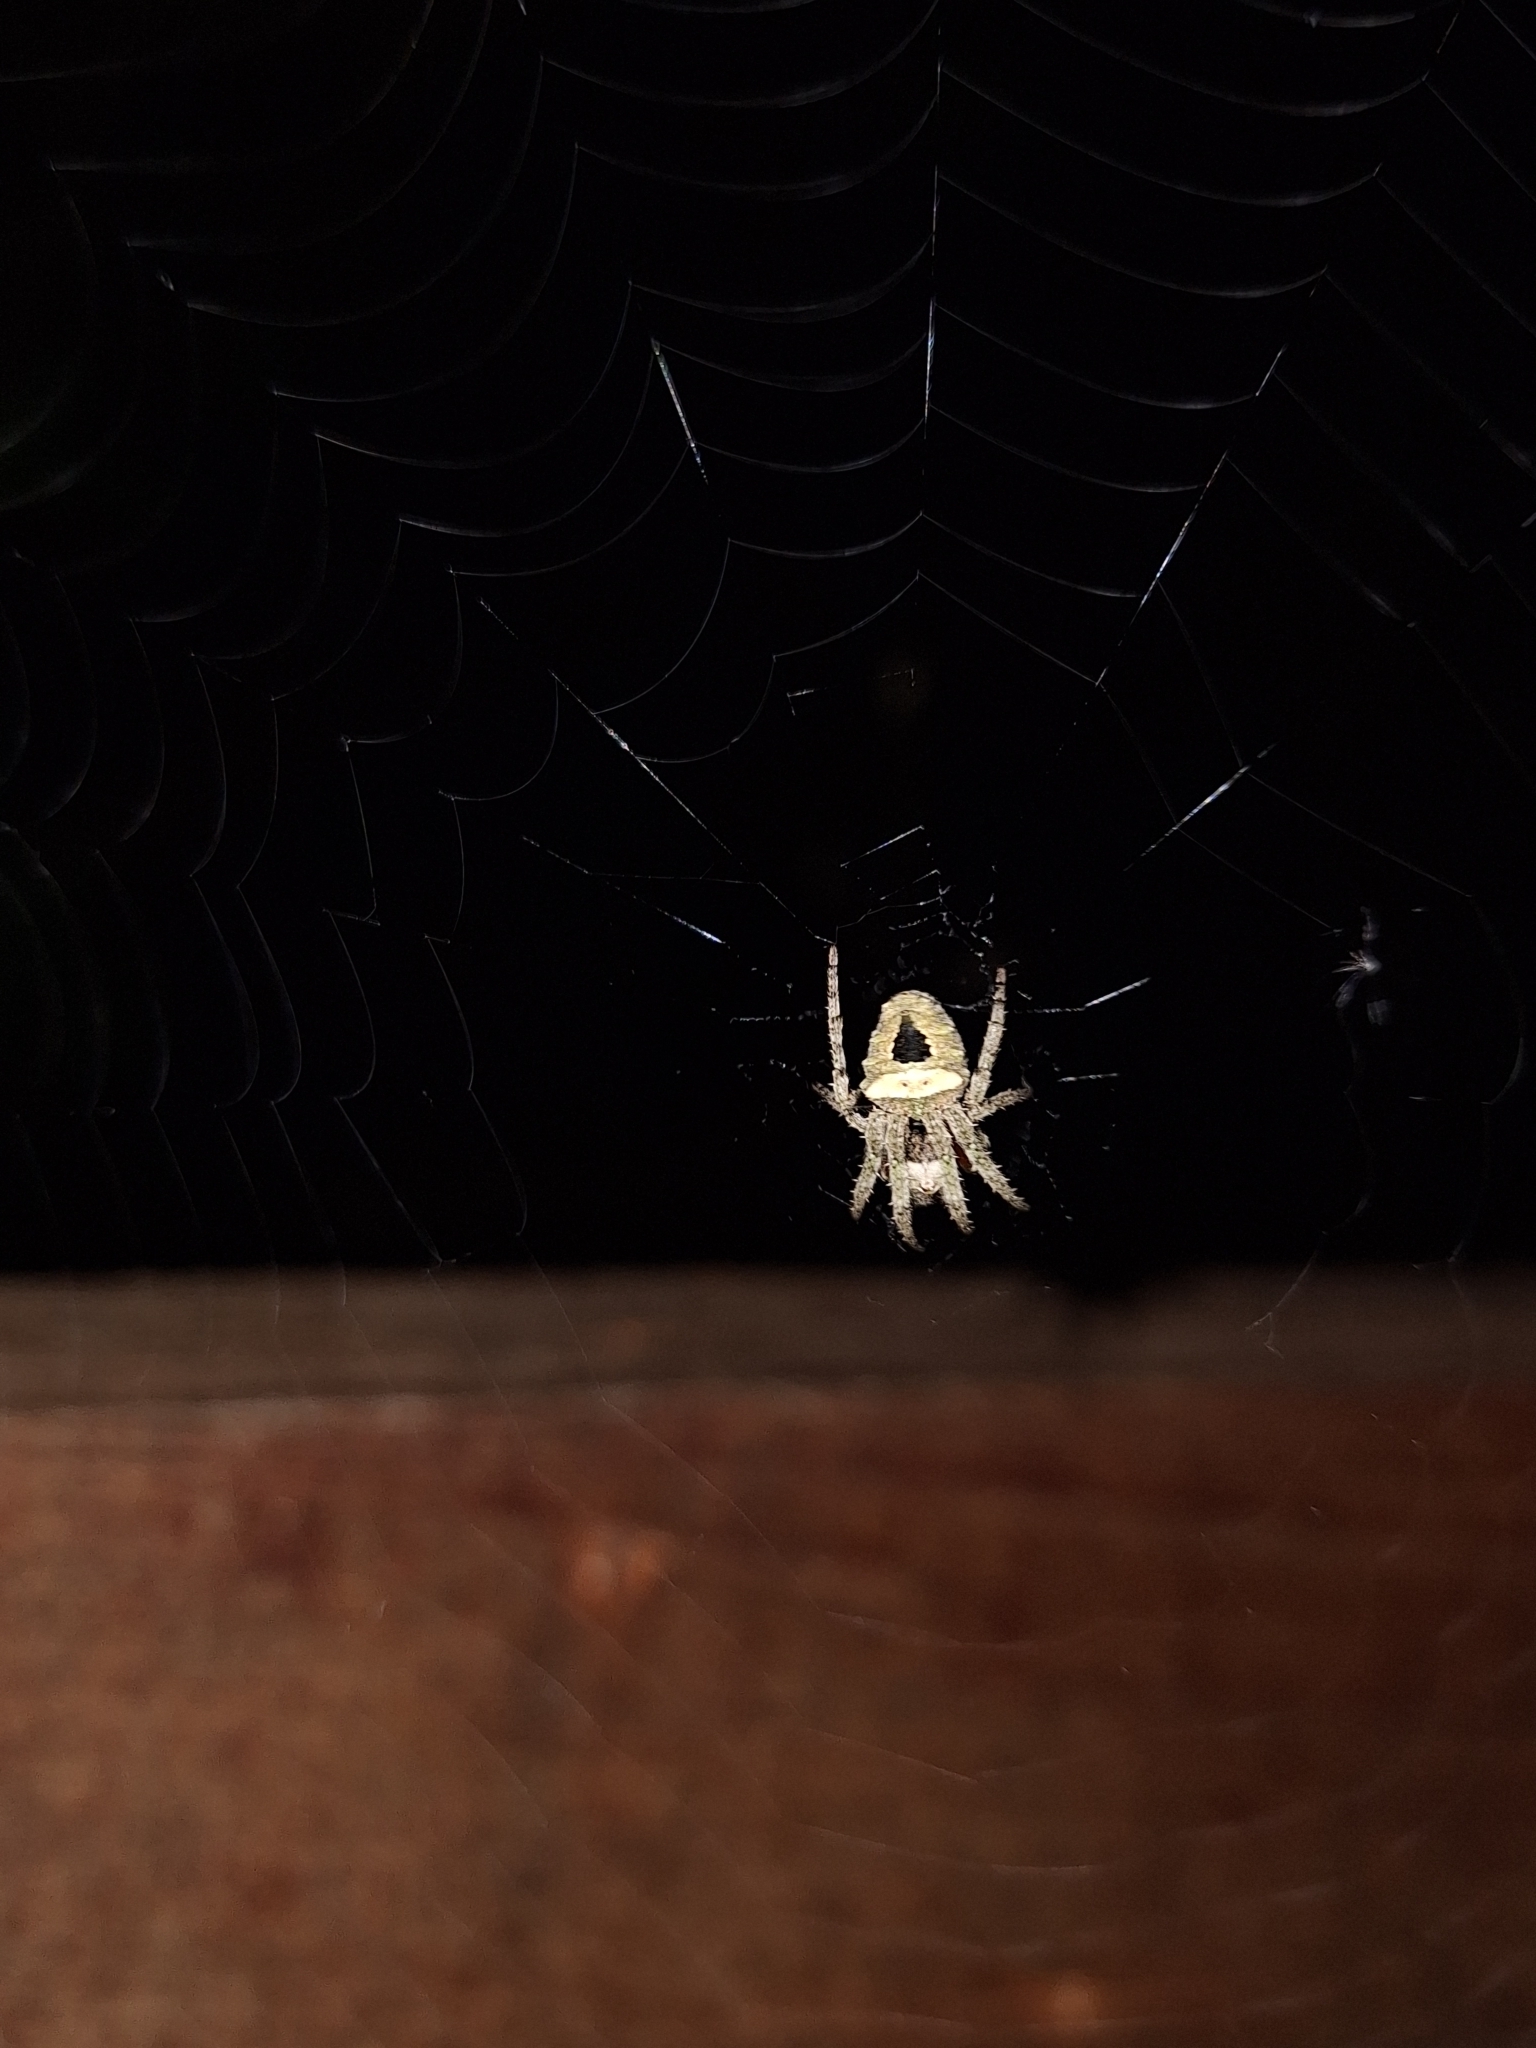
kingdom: Animalia
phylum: Arthropoda
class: Arachnida
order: Araneae
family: Araneidae
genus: Parawixia
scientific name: Parawixia audax
